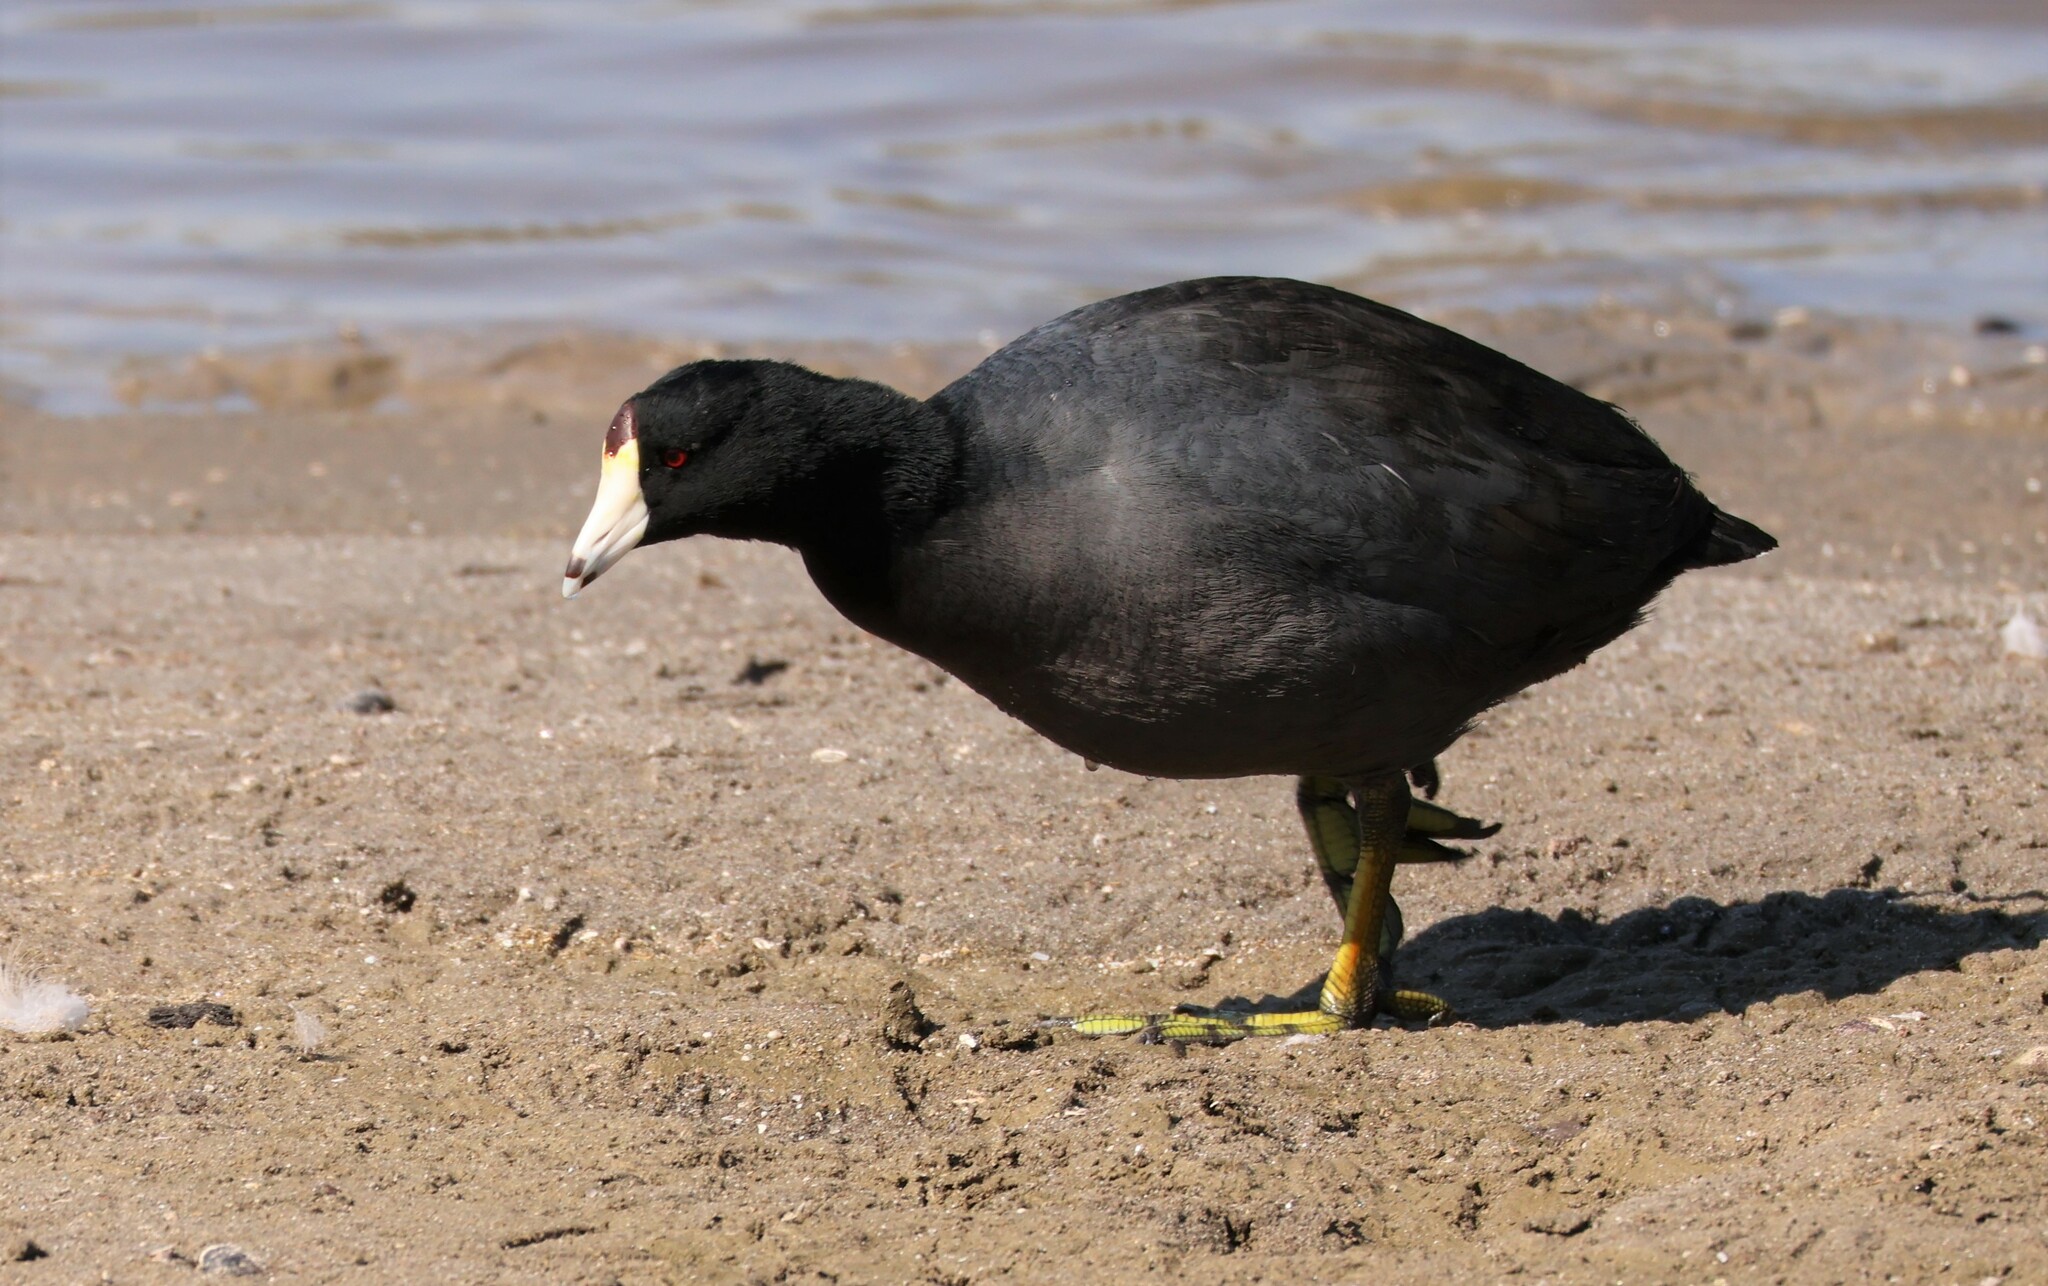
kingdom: Animalia
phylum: Chordata
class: Aves
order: Gruiformes
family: Rallidae
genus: Fulica
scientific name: Fulica americana
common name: American coot
